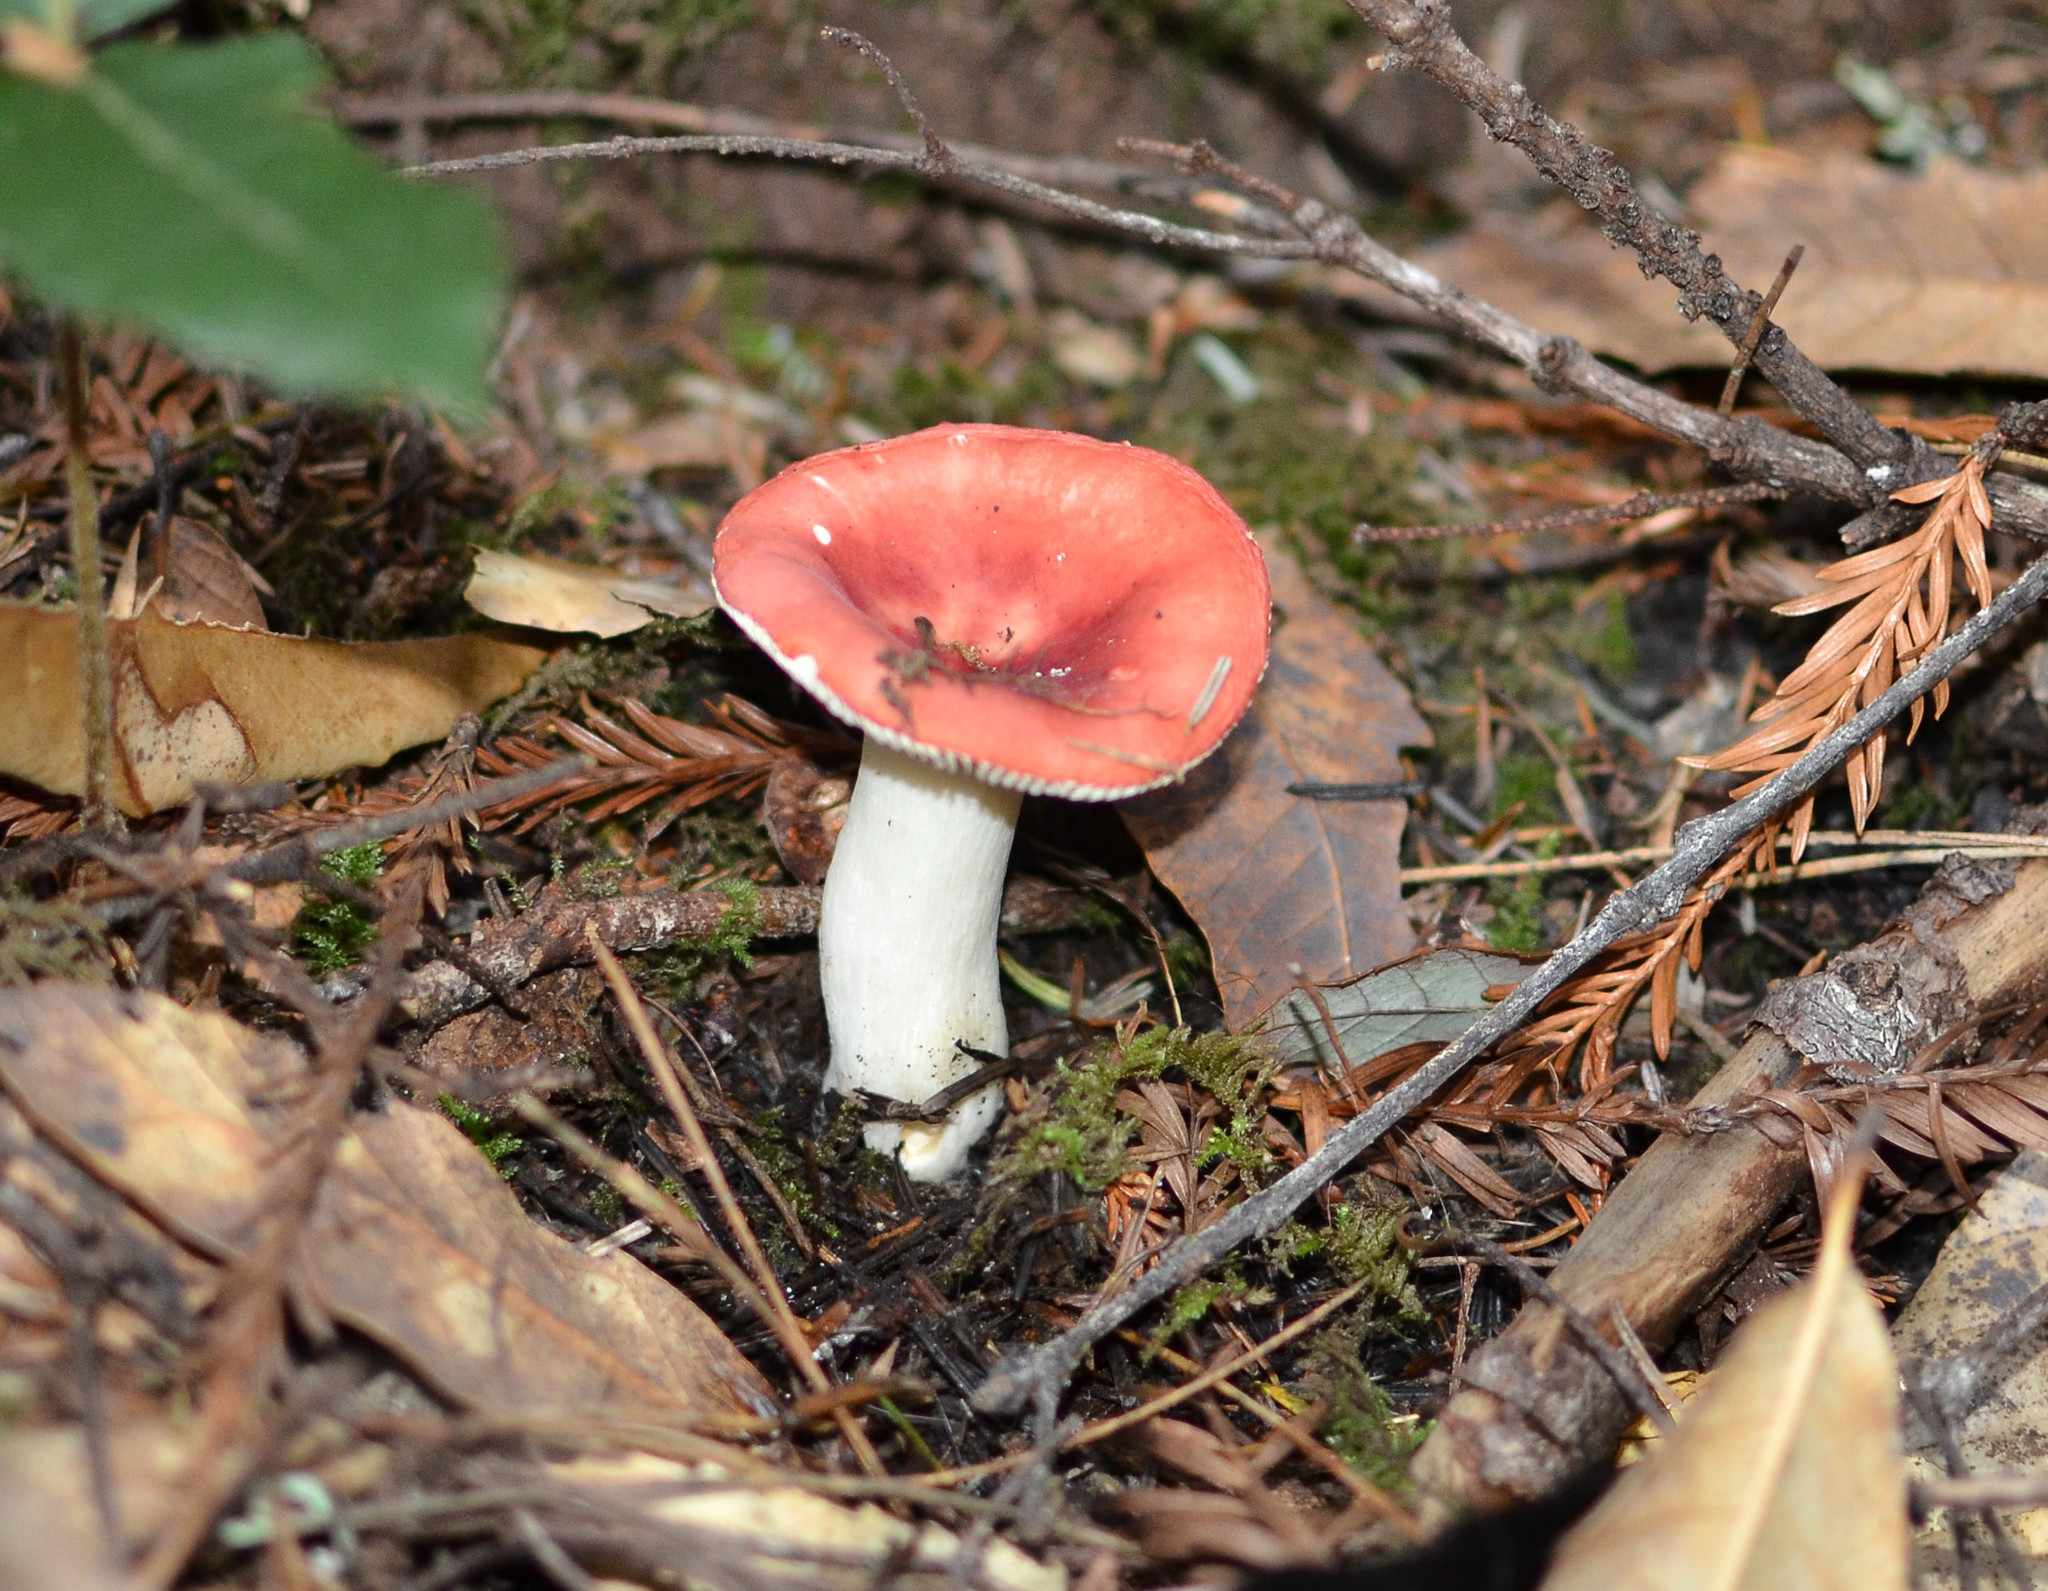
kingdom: Fungi
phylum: Basidiomycota
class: Agaricomycetes
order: Russulales
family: Russulaceae
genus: Russula
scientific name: Russula cremoricolor
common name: Winter russula
